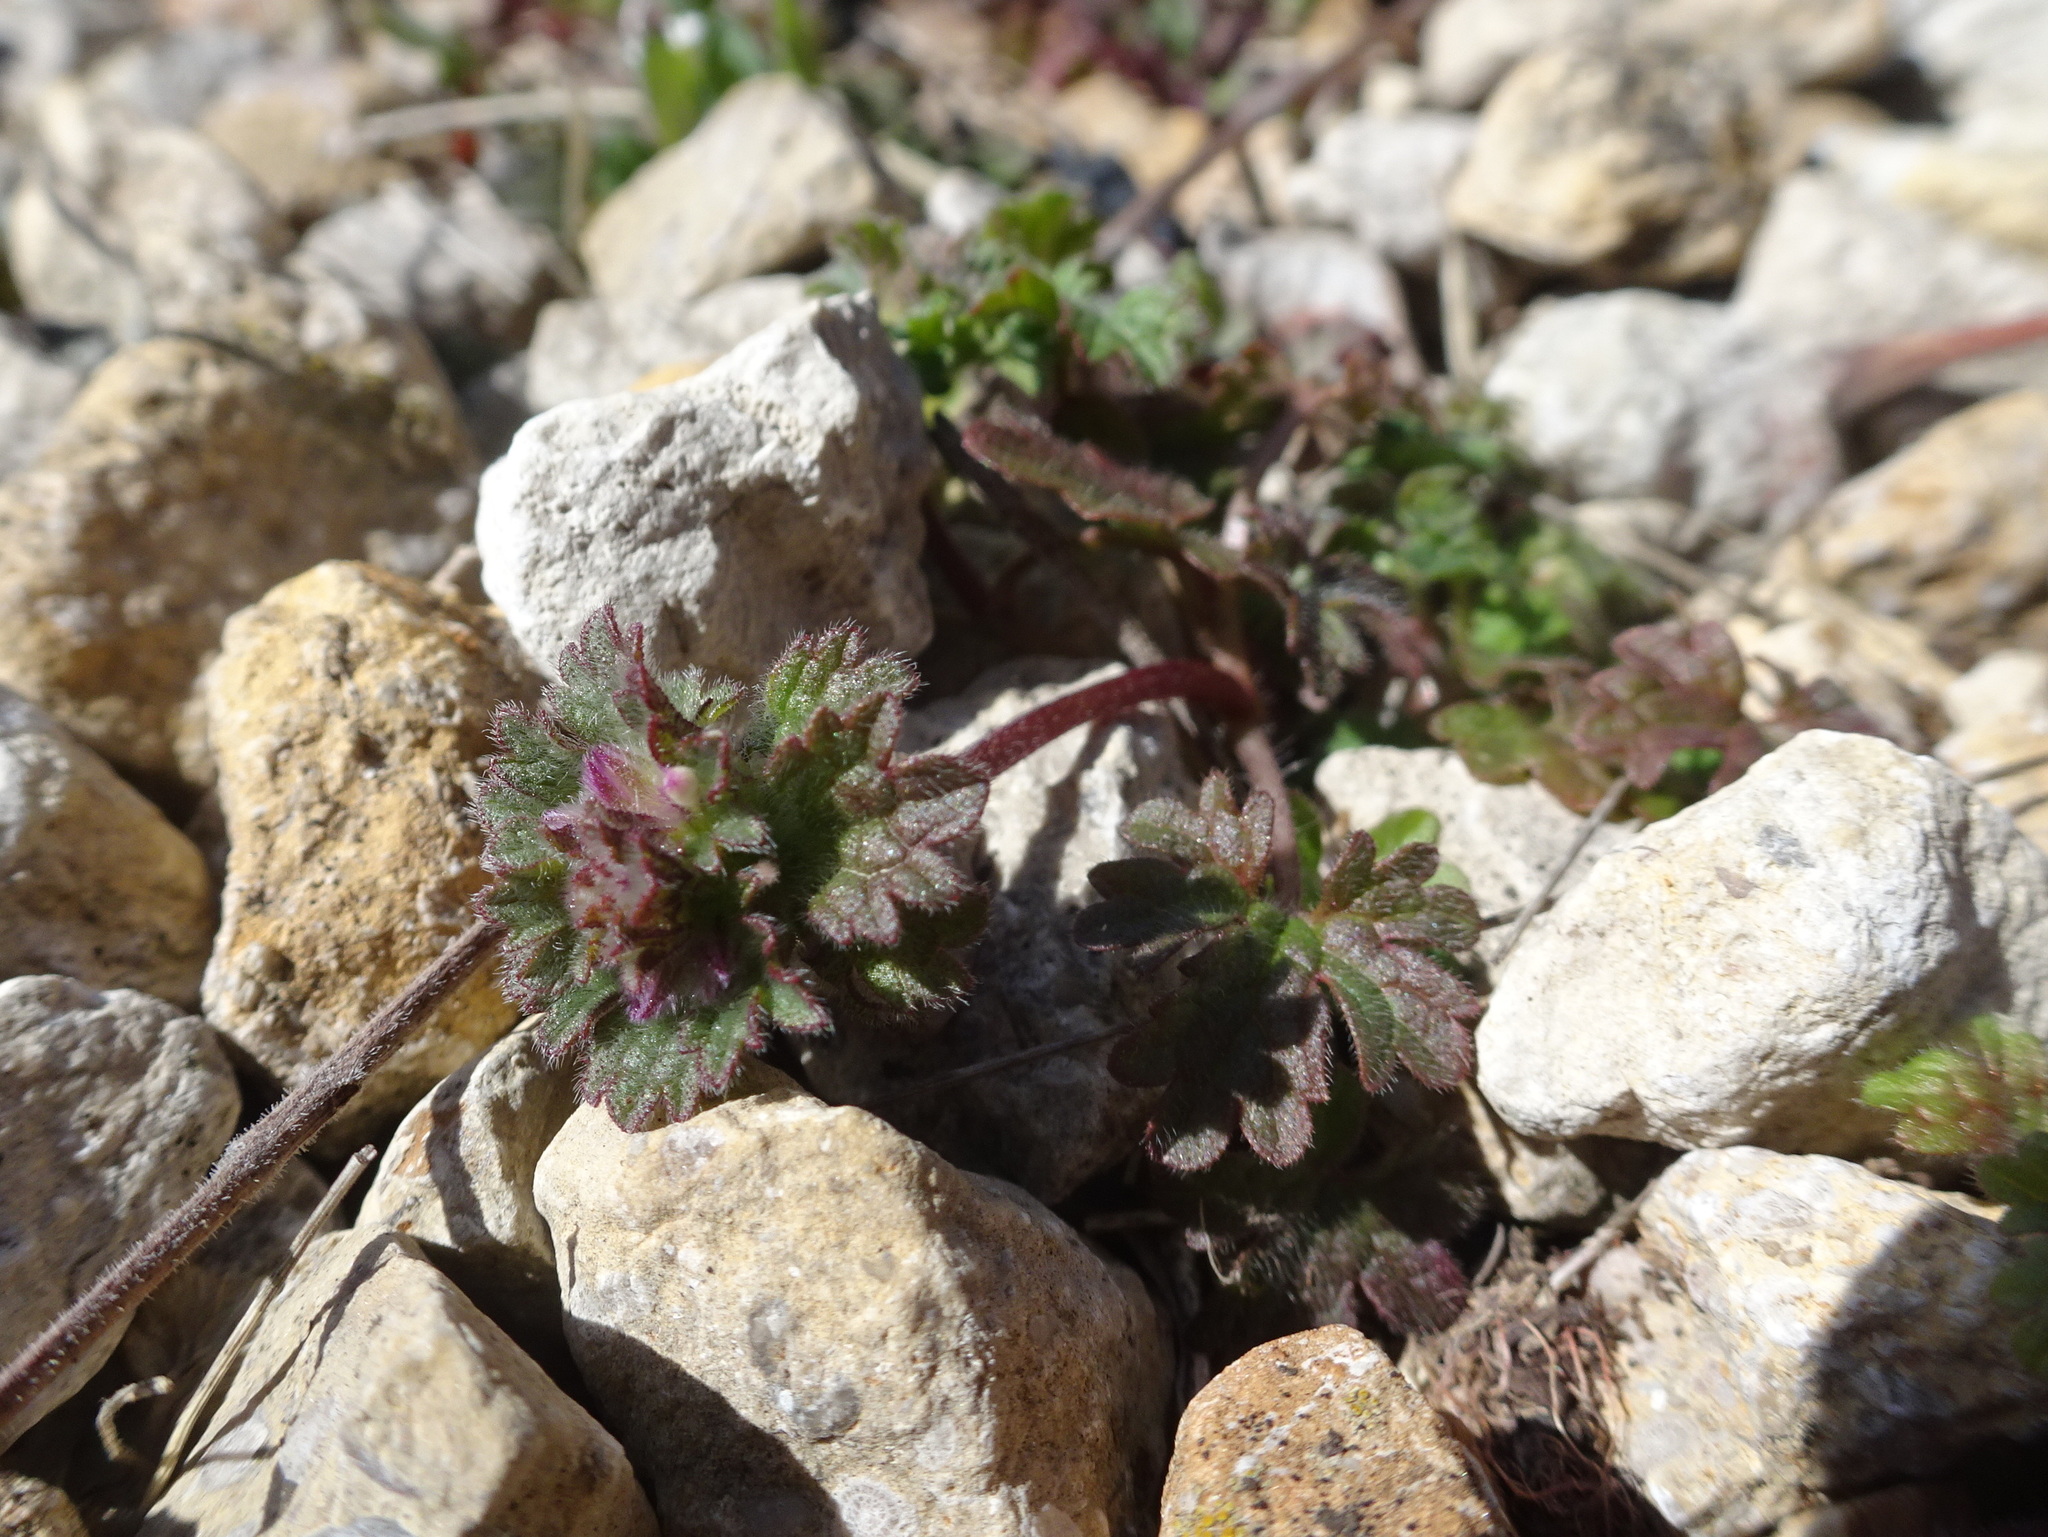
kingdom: Plantae
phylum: Tracheophyta
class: Magnoliopsida
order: Lamiales
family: Lamiaceae
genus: Lamium
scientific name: Lamium amplexicaule
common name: Henbit dead-nettle
